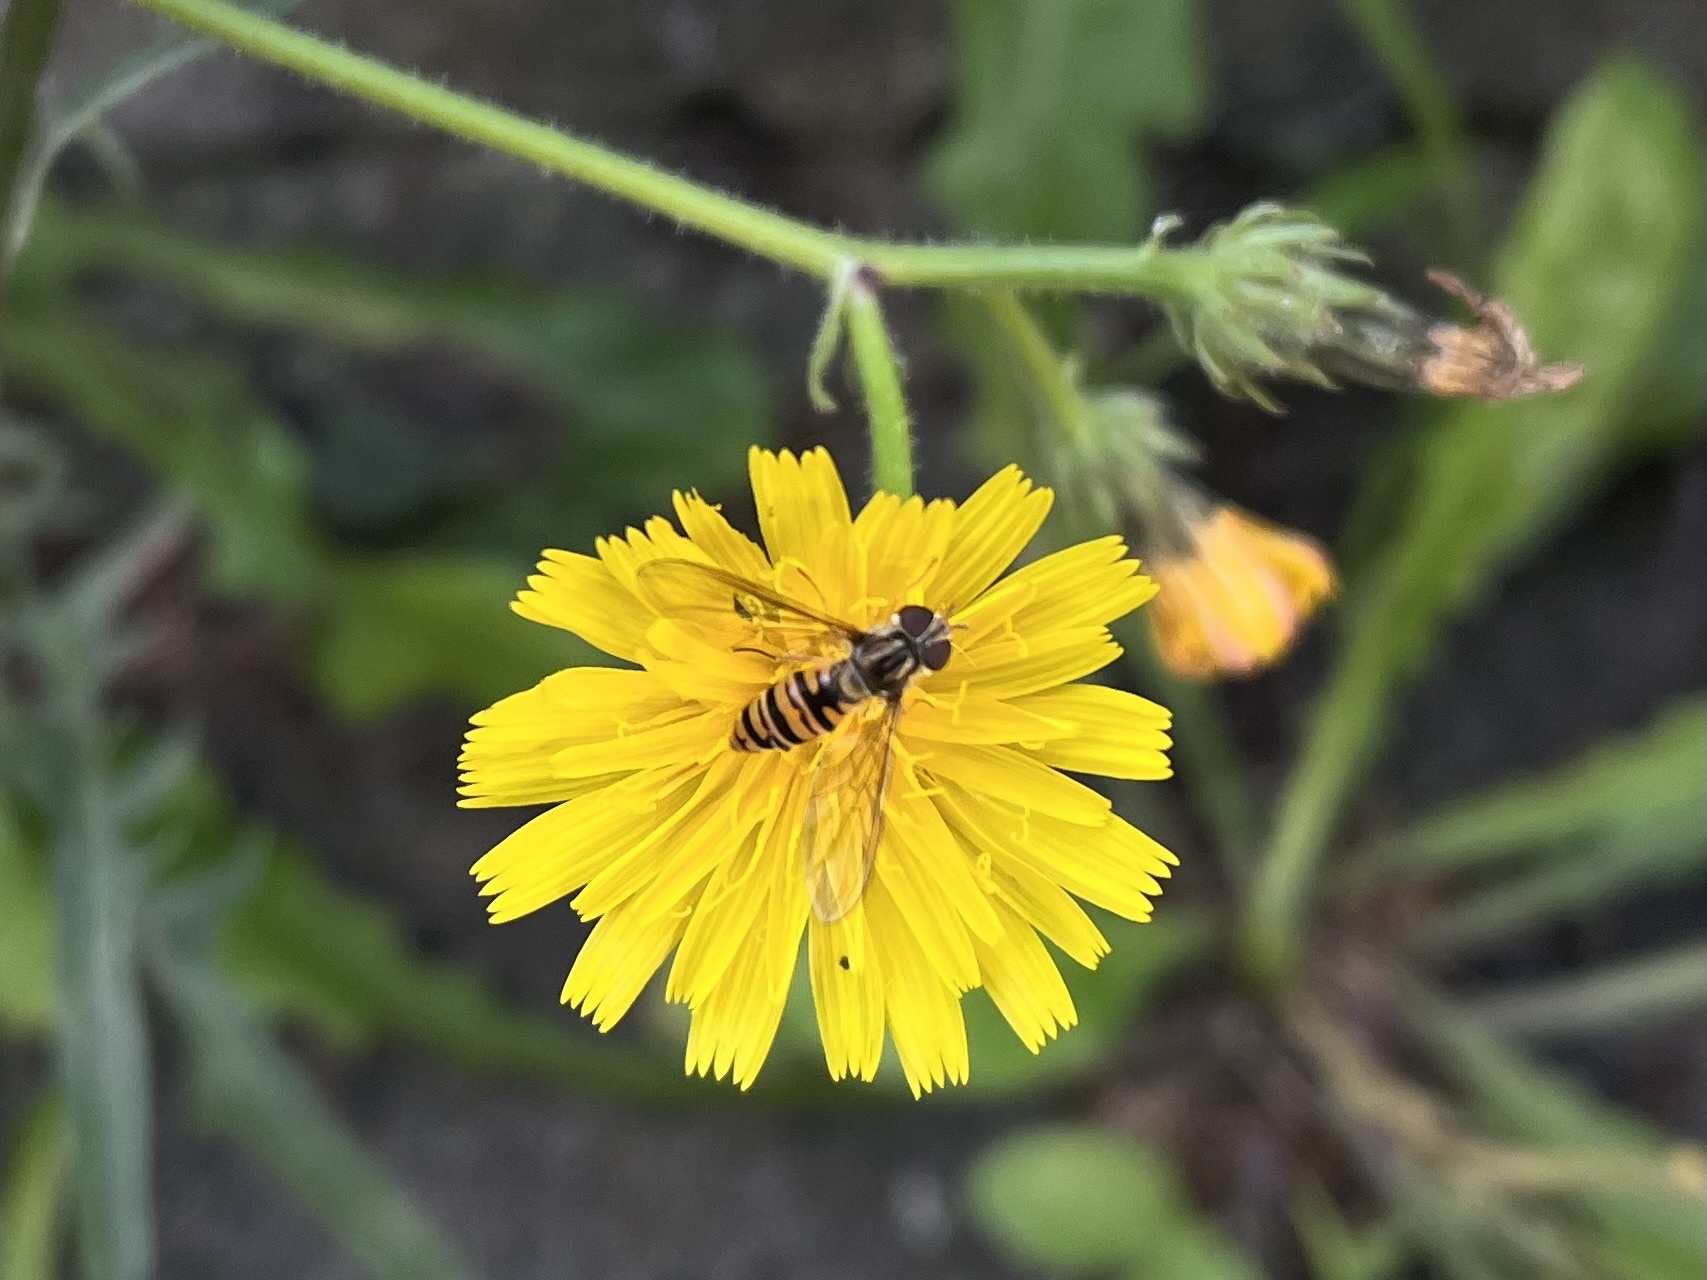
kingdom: Animalia
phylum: Arthropoda
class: Insecta
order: Diptera
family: Syrphidae
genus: Episyrphus
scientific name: Episyrphus balteatus
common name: Marmalade hoverfly
